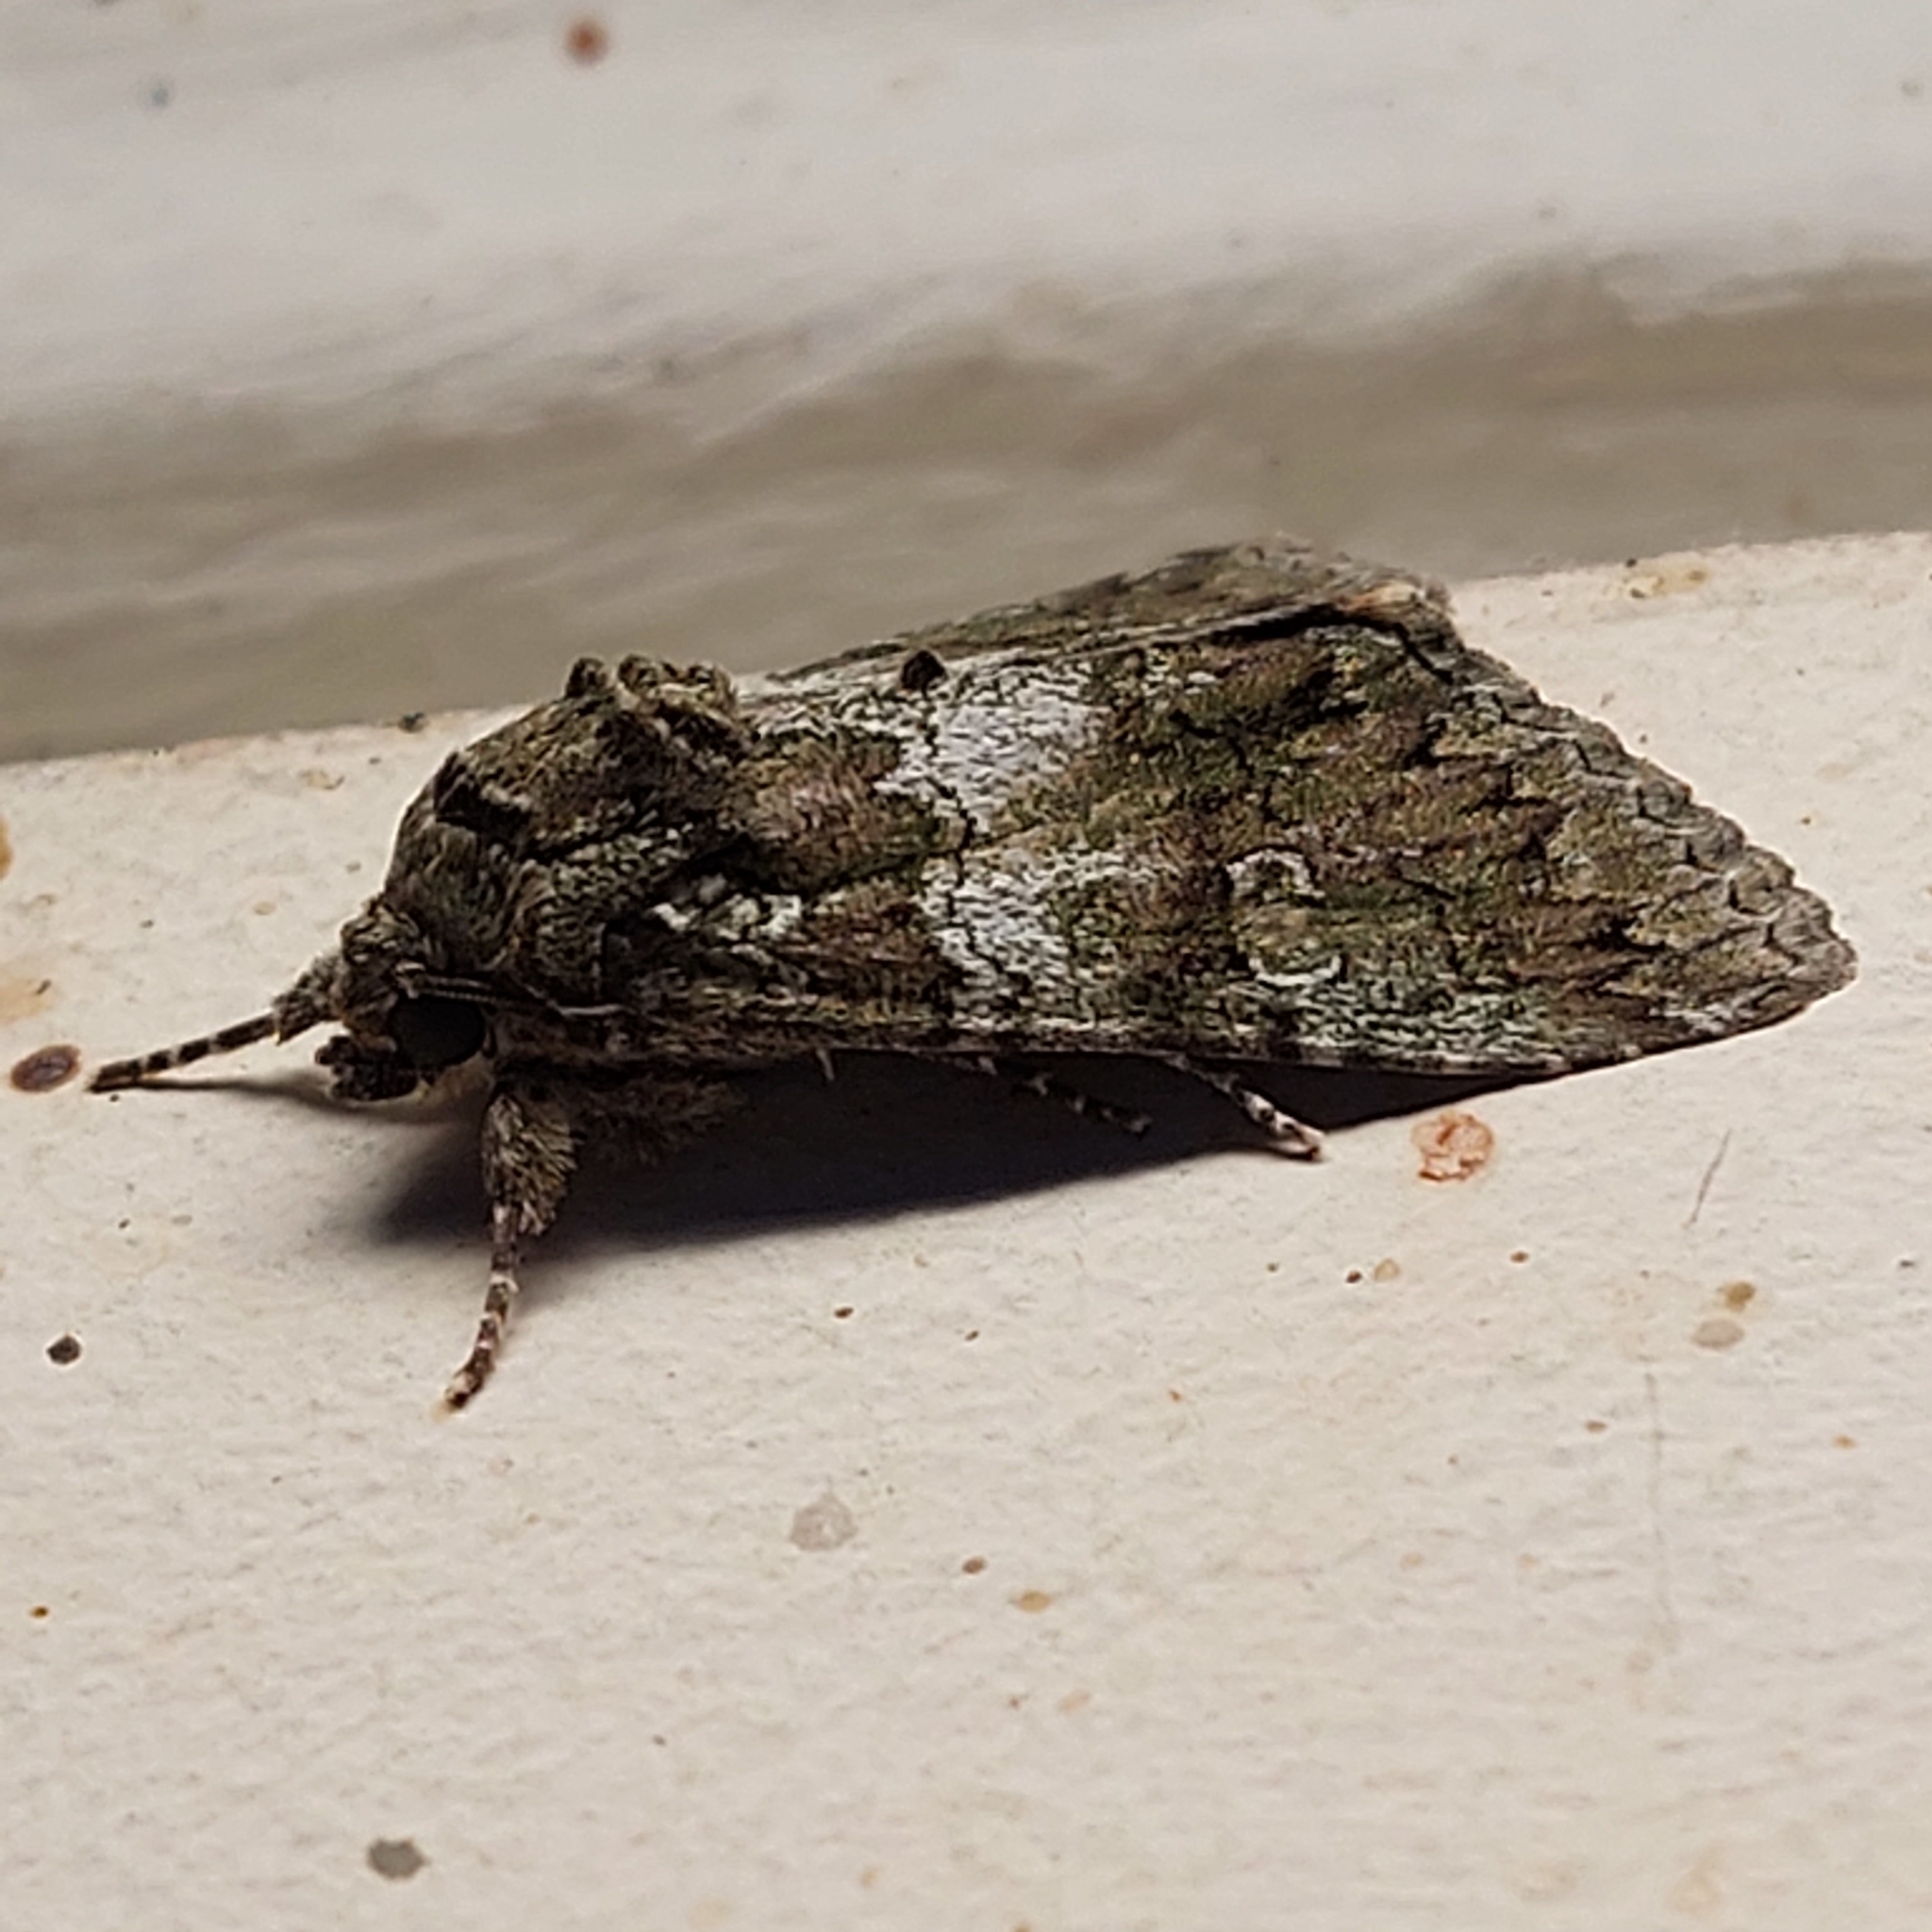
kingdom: Animalia
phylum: Arthropoda
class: Insecta
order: Lepidoptera
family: Noctuidae
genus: Olivenebula
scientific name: Olivenebula subsericata
